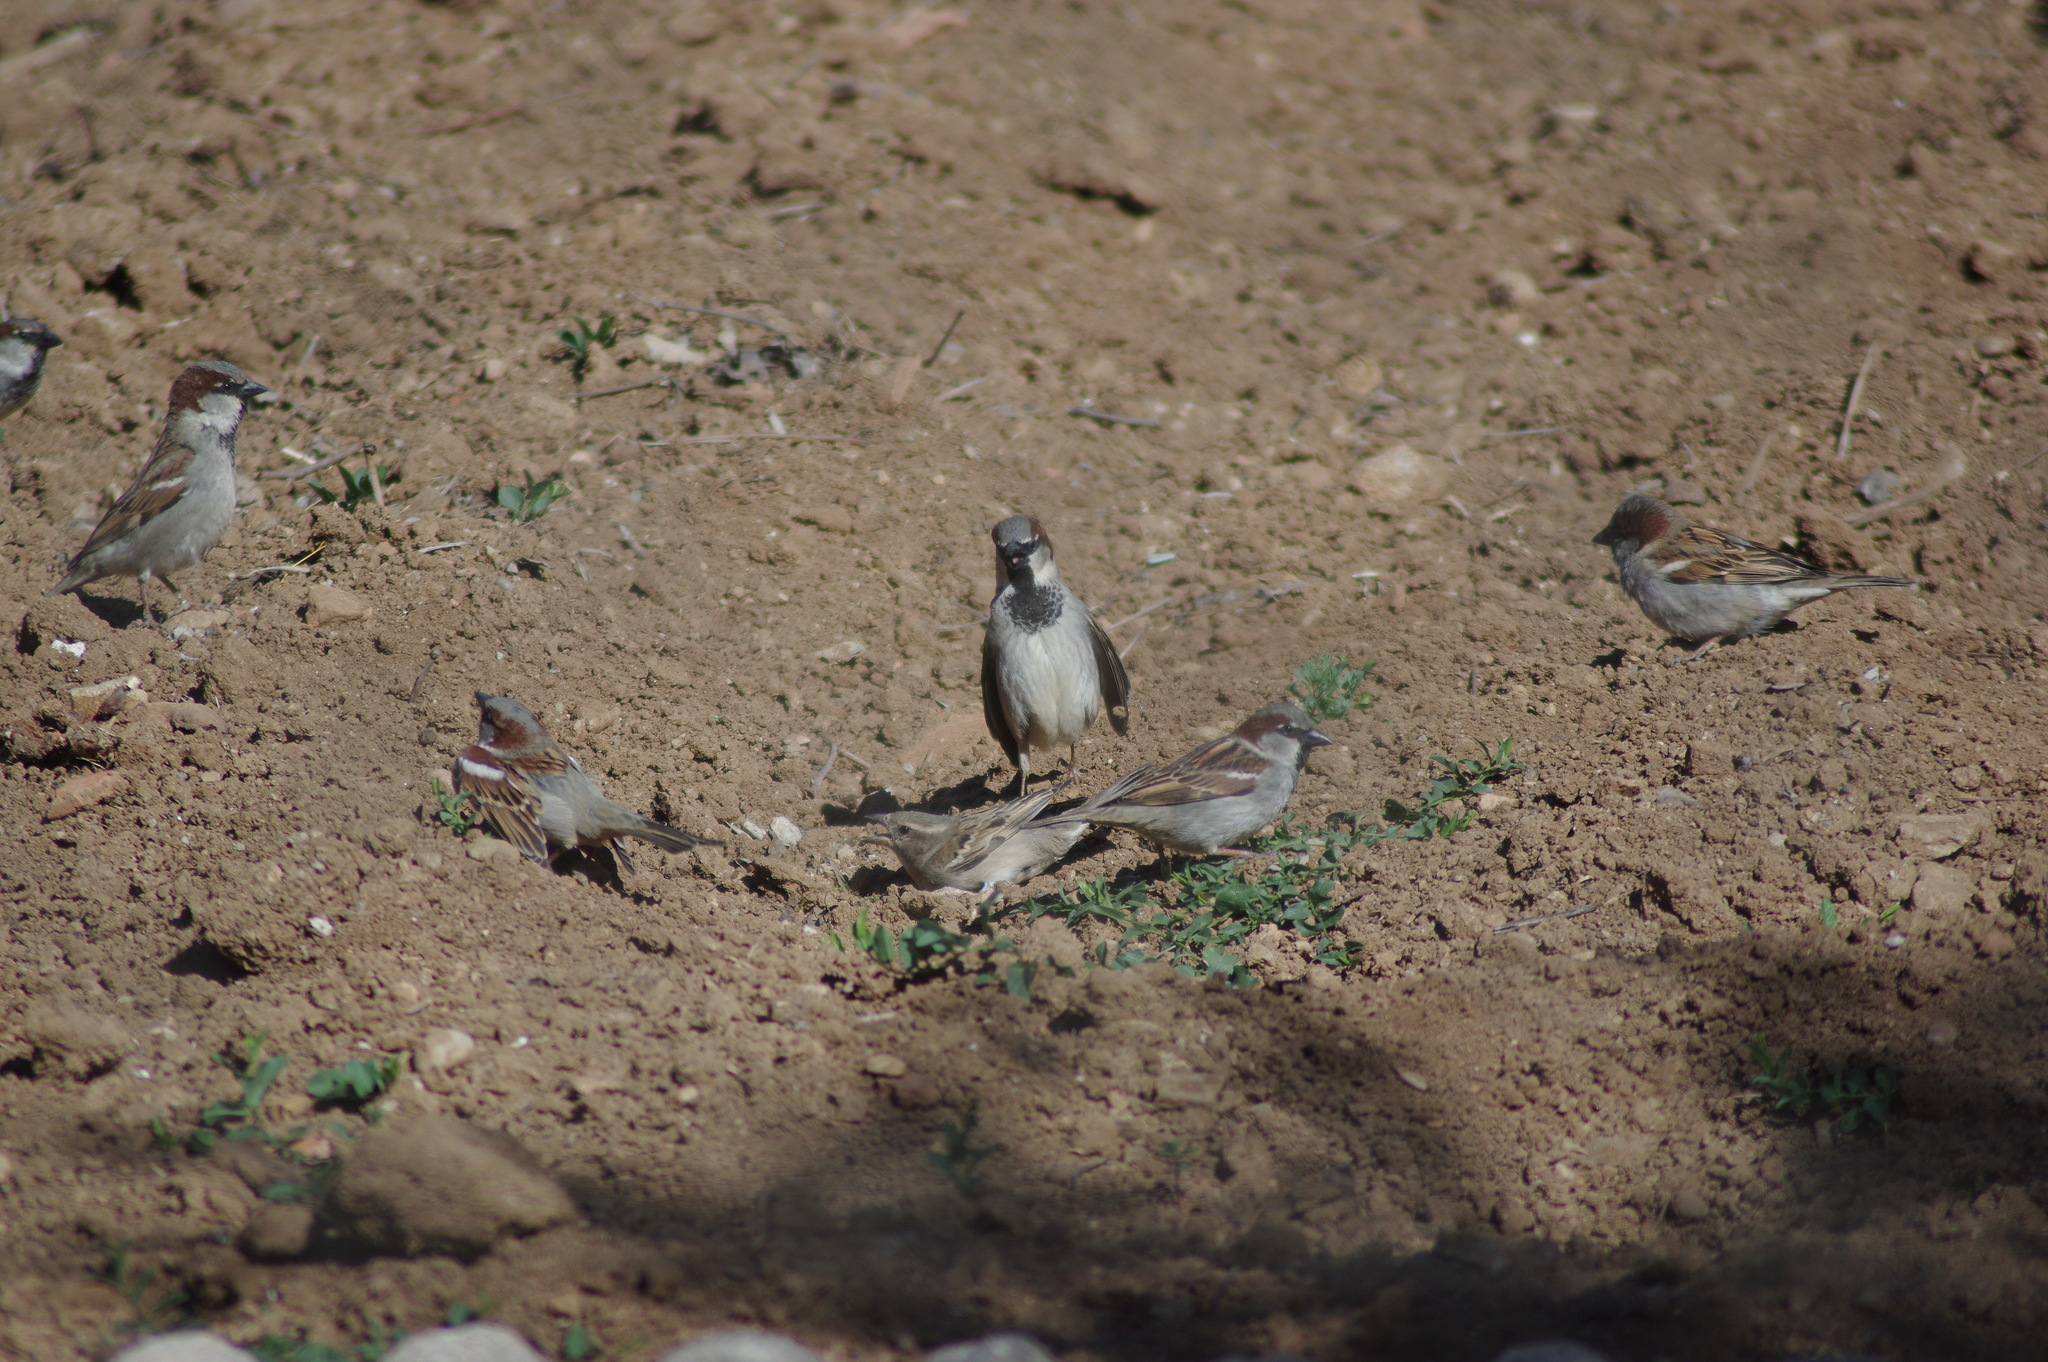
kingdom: Animalia
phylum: Chordata
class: Aves
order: Passeriformes
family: Passeridae
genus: Passer
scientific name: Passer domesticus
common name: House sparrow
